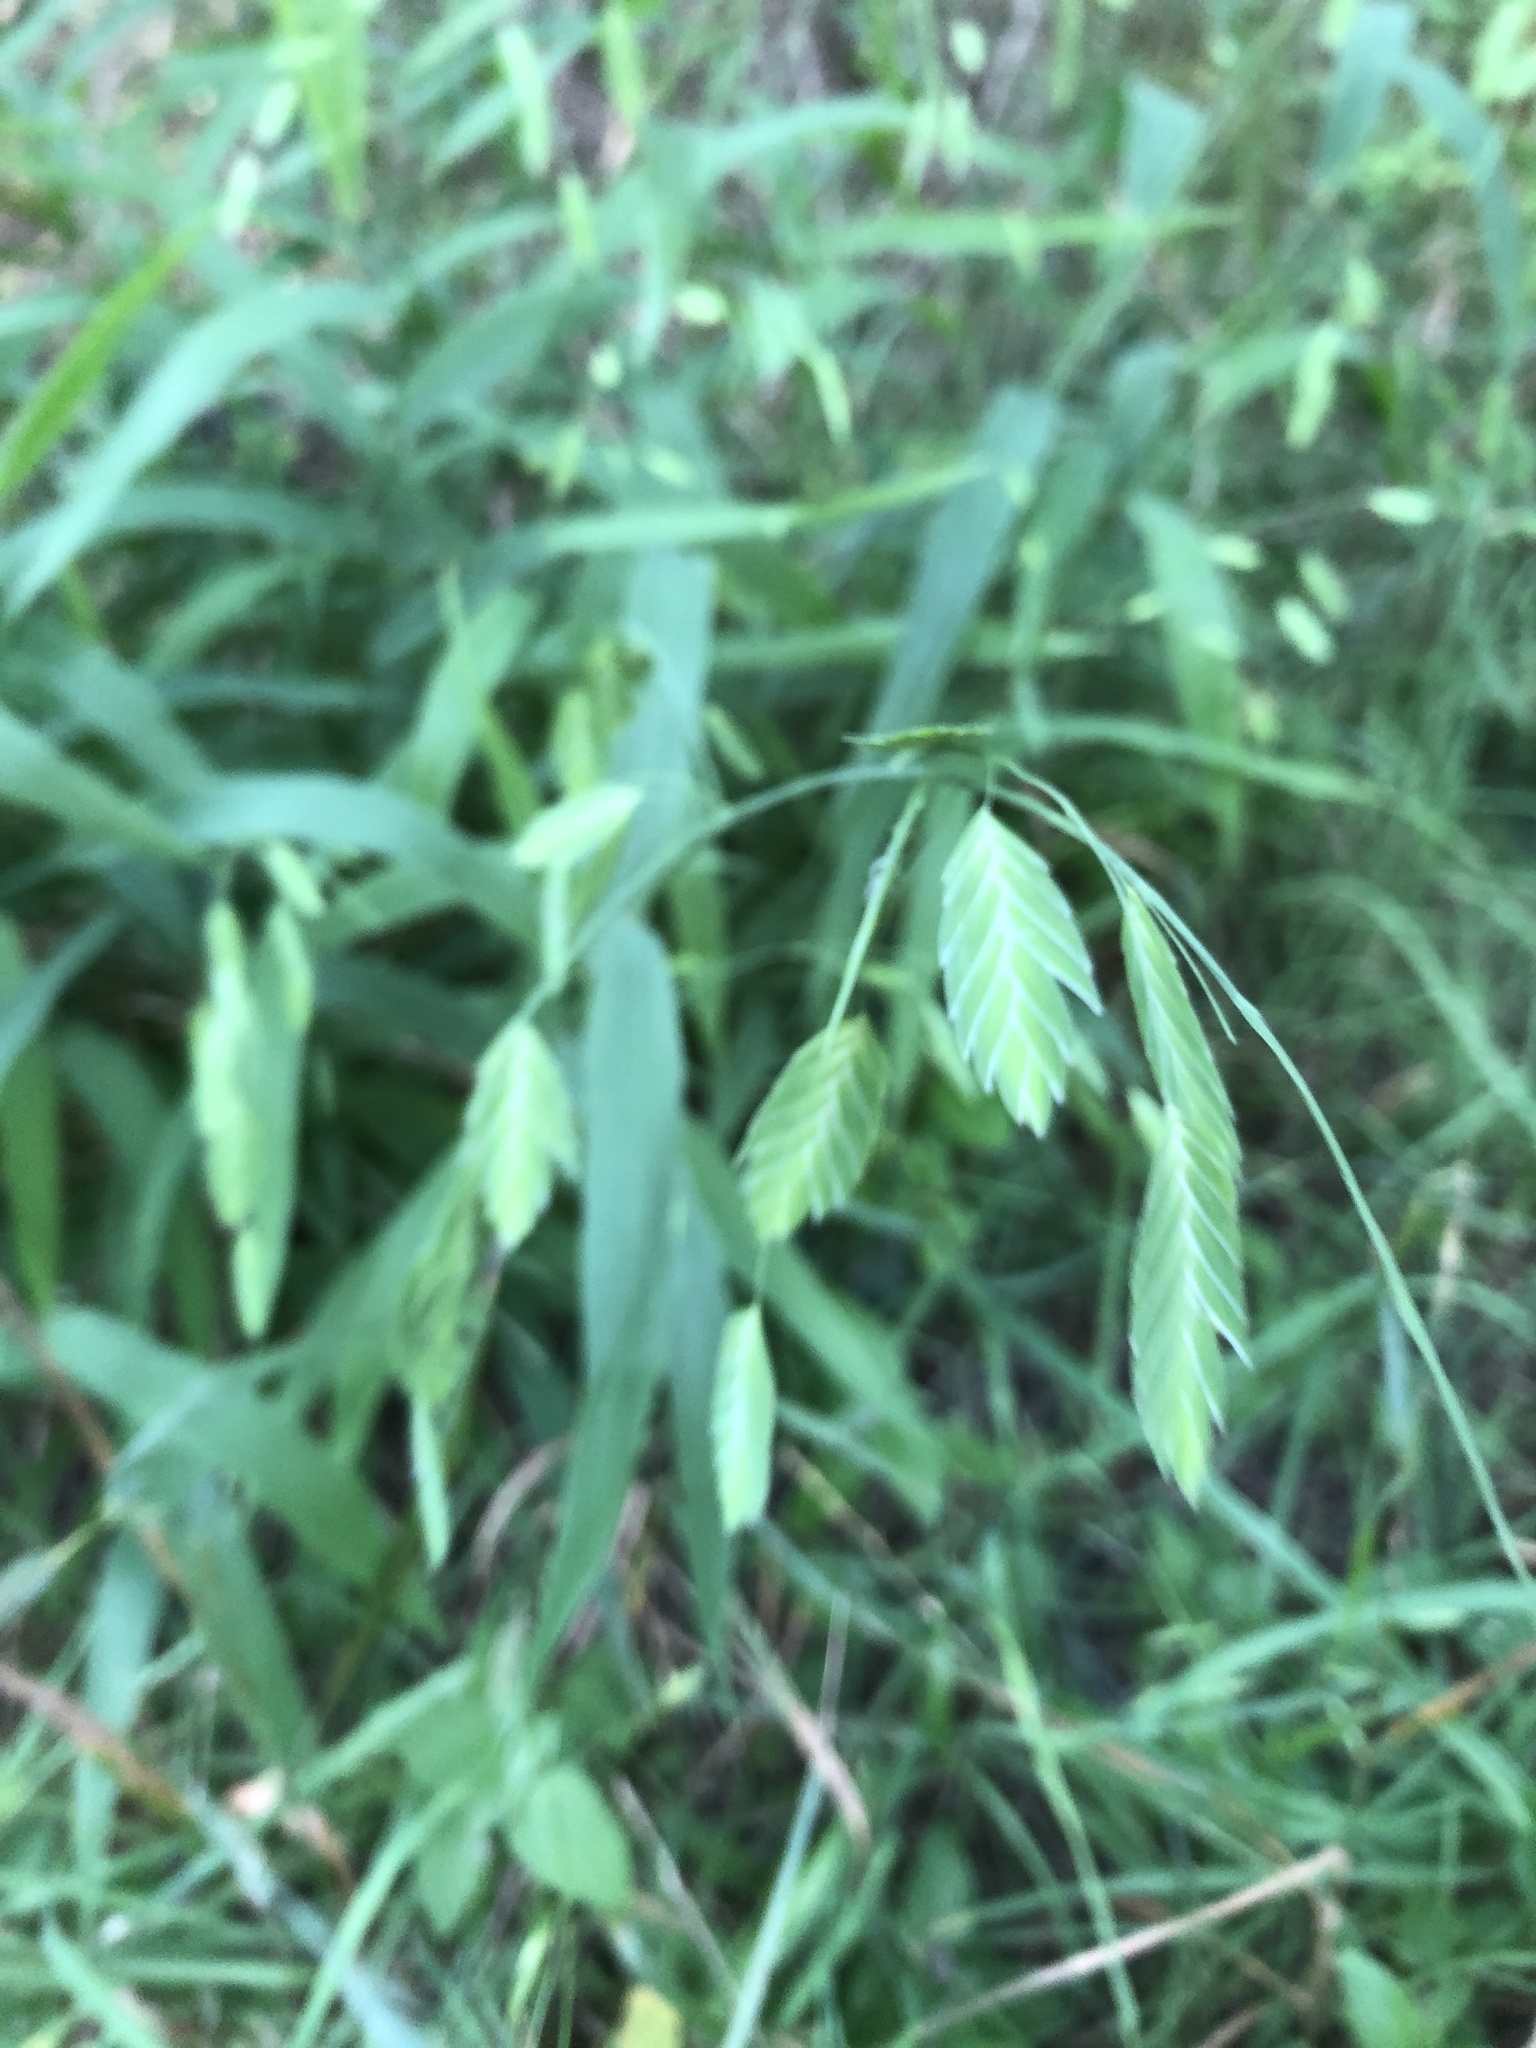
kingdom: Plantae
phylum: Tracheophyta
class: Liliopsida
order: Poales
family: Poaceae
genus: Chasmanthium
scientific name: Chasmanthium latifolium
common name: Broad-leaved chasmanthium
